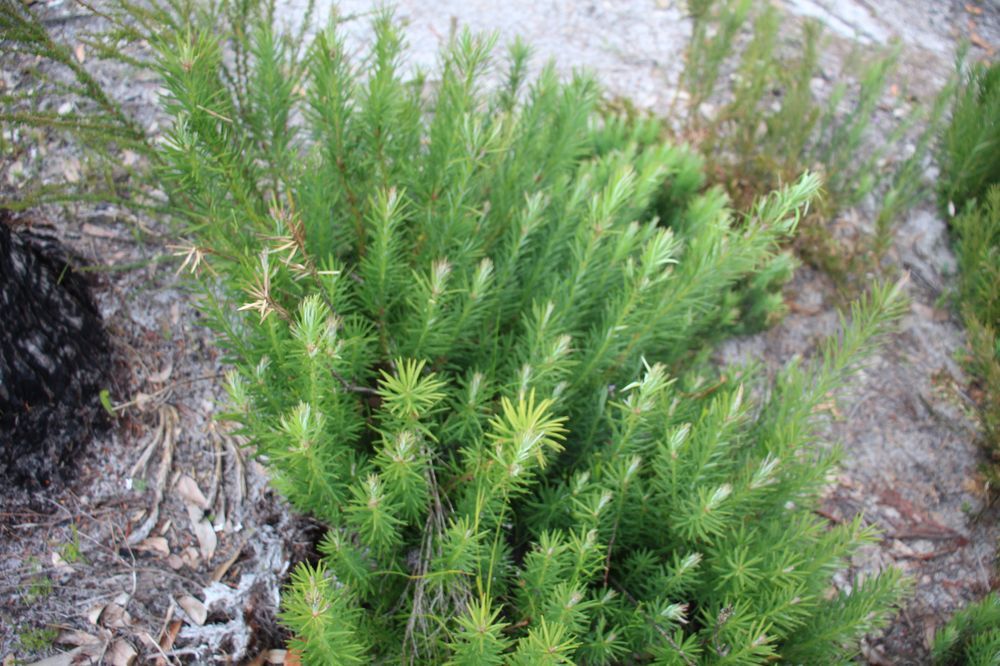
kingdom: Plantae
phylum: Tracheophyta
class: Pinopsida
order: Pinales
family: Podocarpaceae
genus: Podocarpus
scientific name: Podocarpus drouynianus
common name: Emu berry
